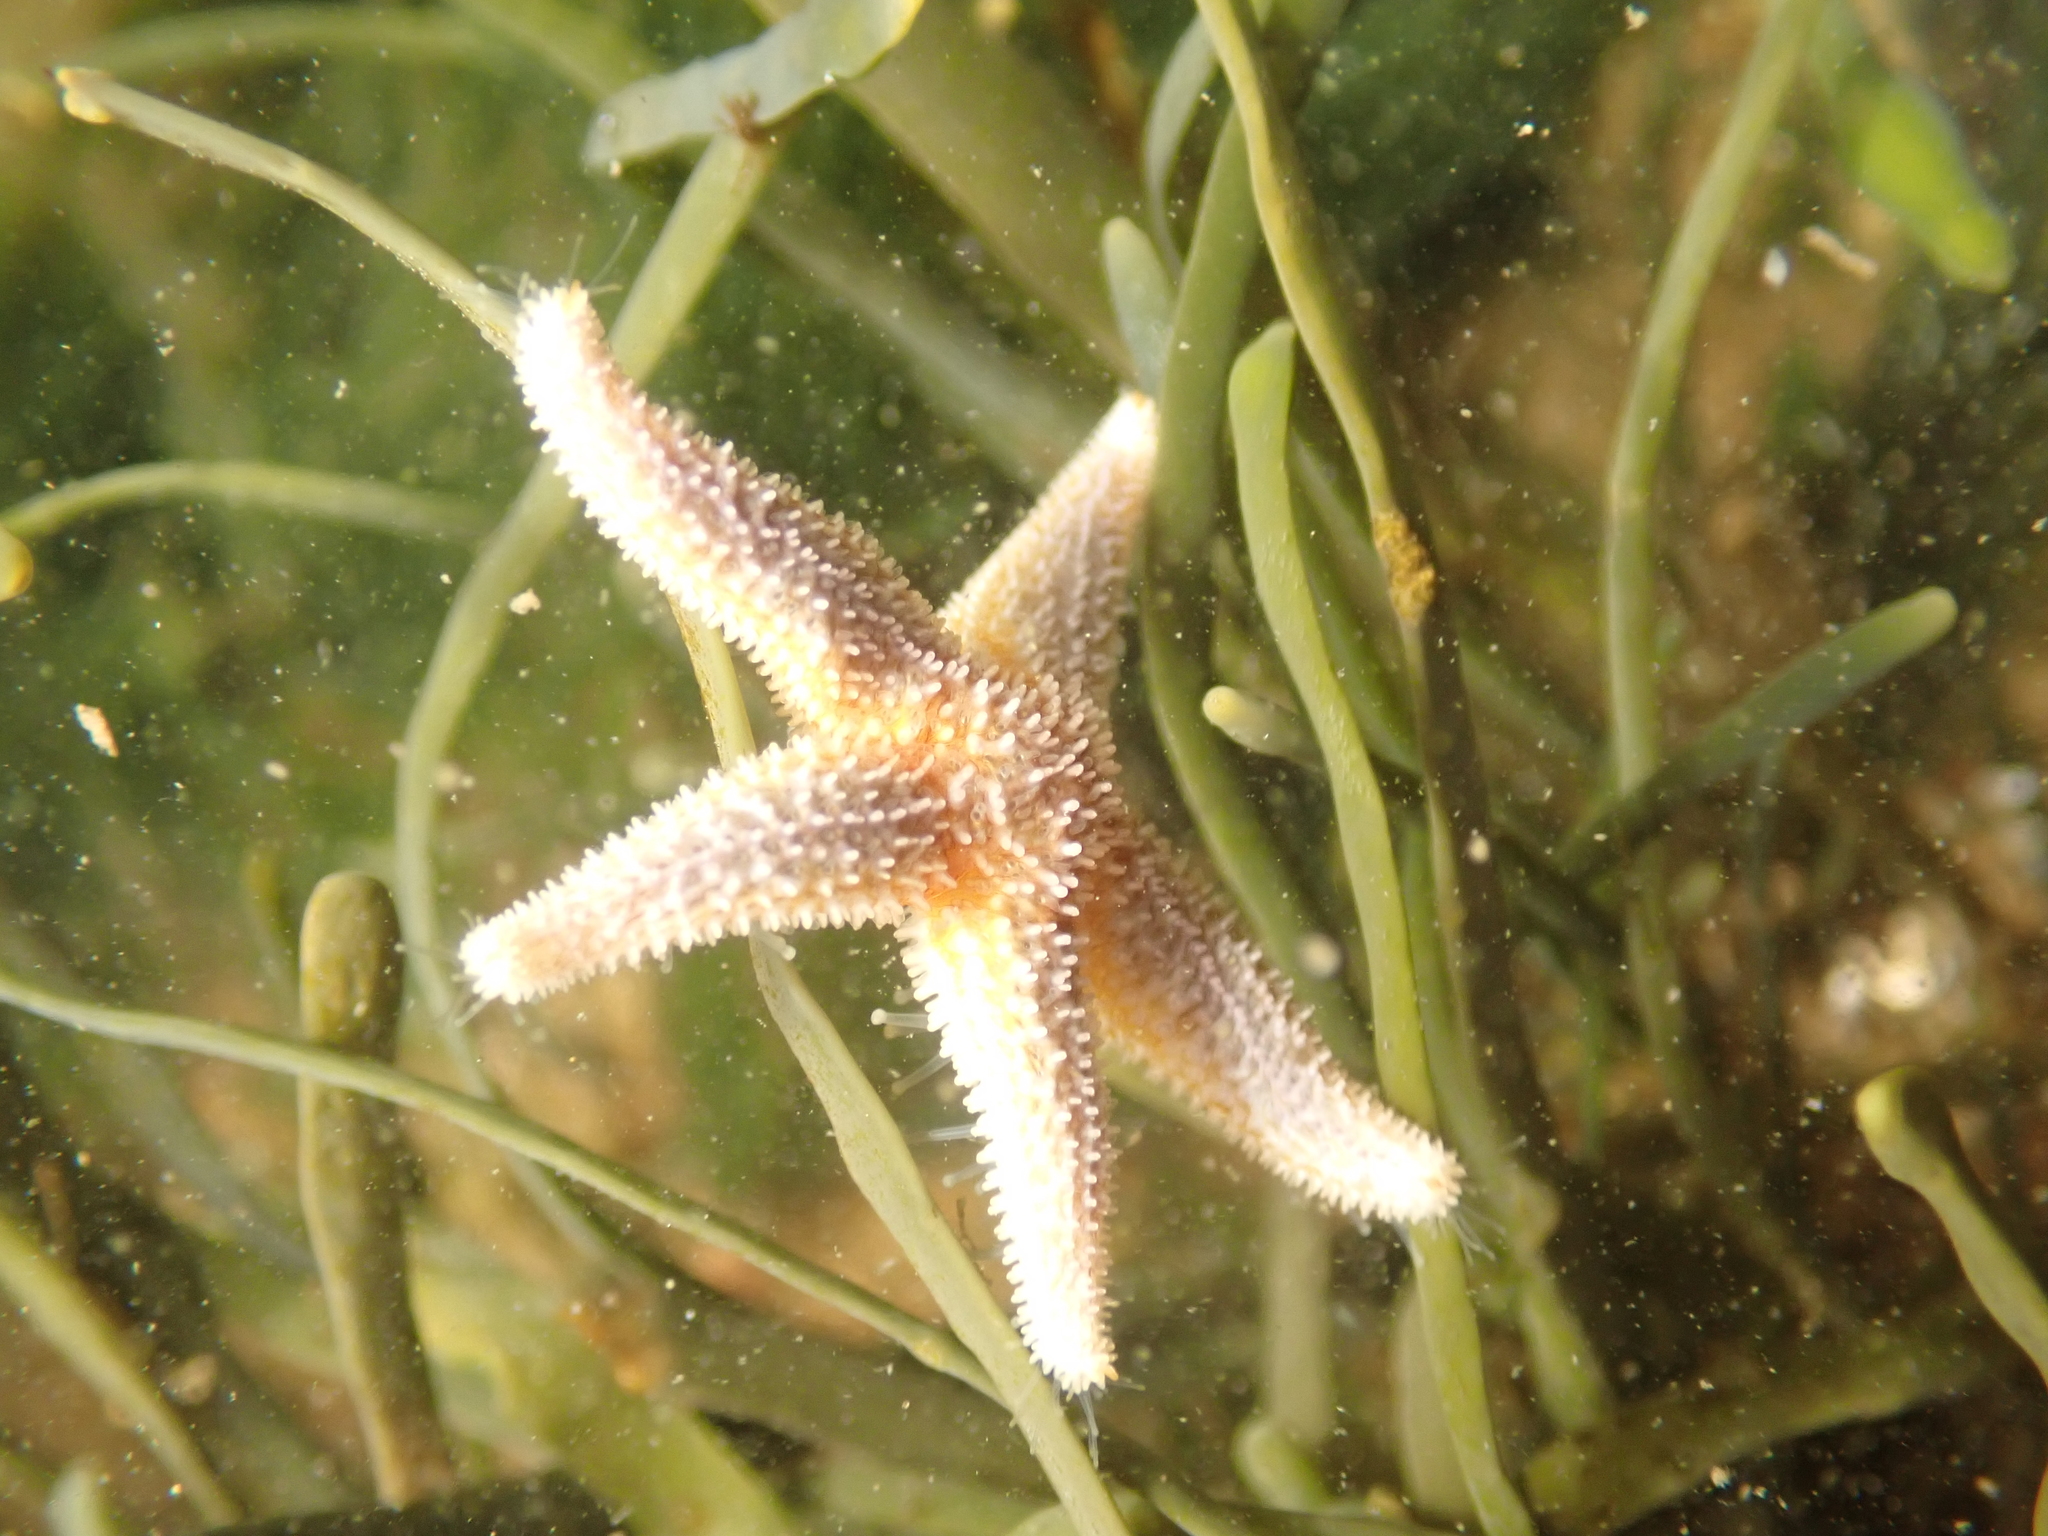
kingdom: Animalia
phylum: Echinodermata
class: Asteroidea
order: Forcipulatida
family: Asteriidae
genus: Asterias
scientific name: Asterias rubens
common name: Common starfish
